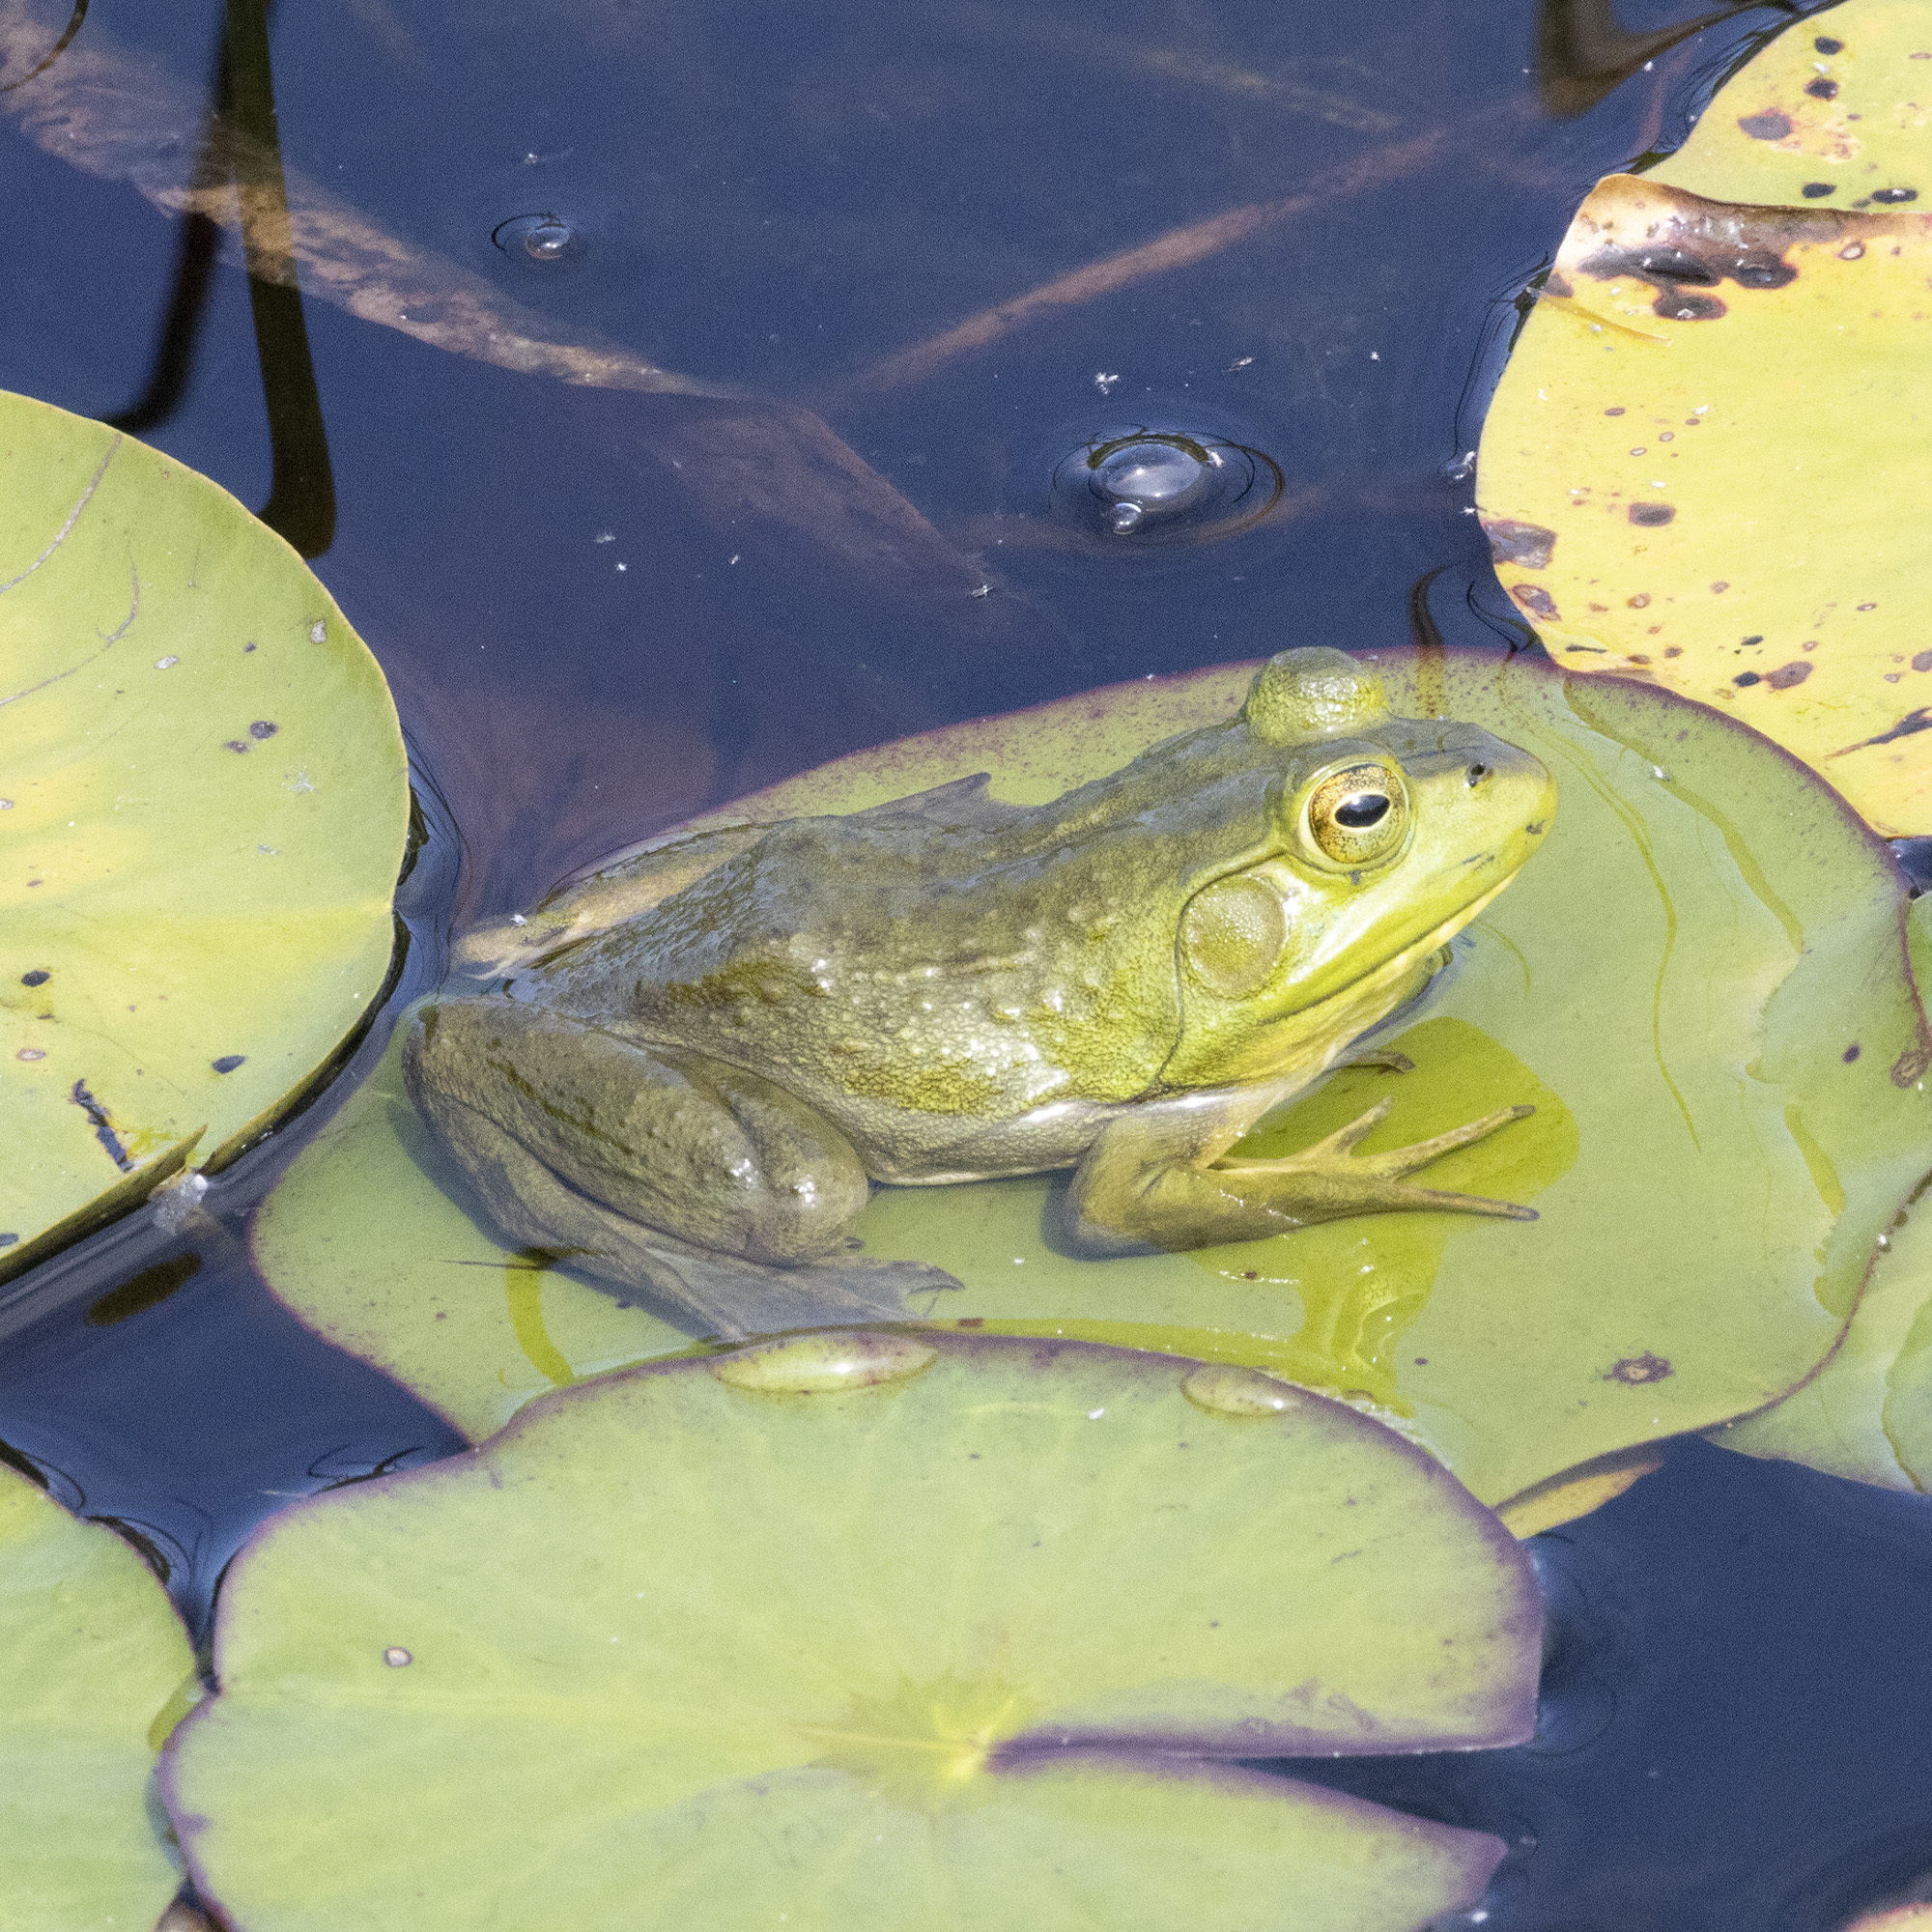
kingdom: Animalia
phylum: Chordata
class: Amphibia
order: Anura
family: Ranidae
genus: Lithobates
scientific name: Lithobates catesbeianus
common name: American bullfrog
